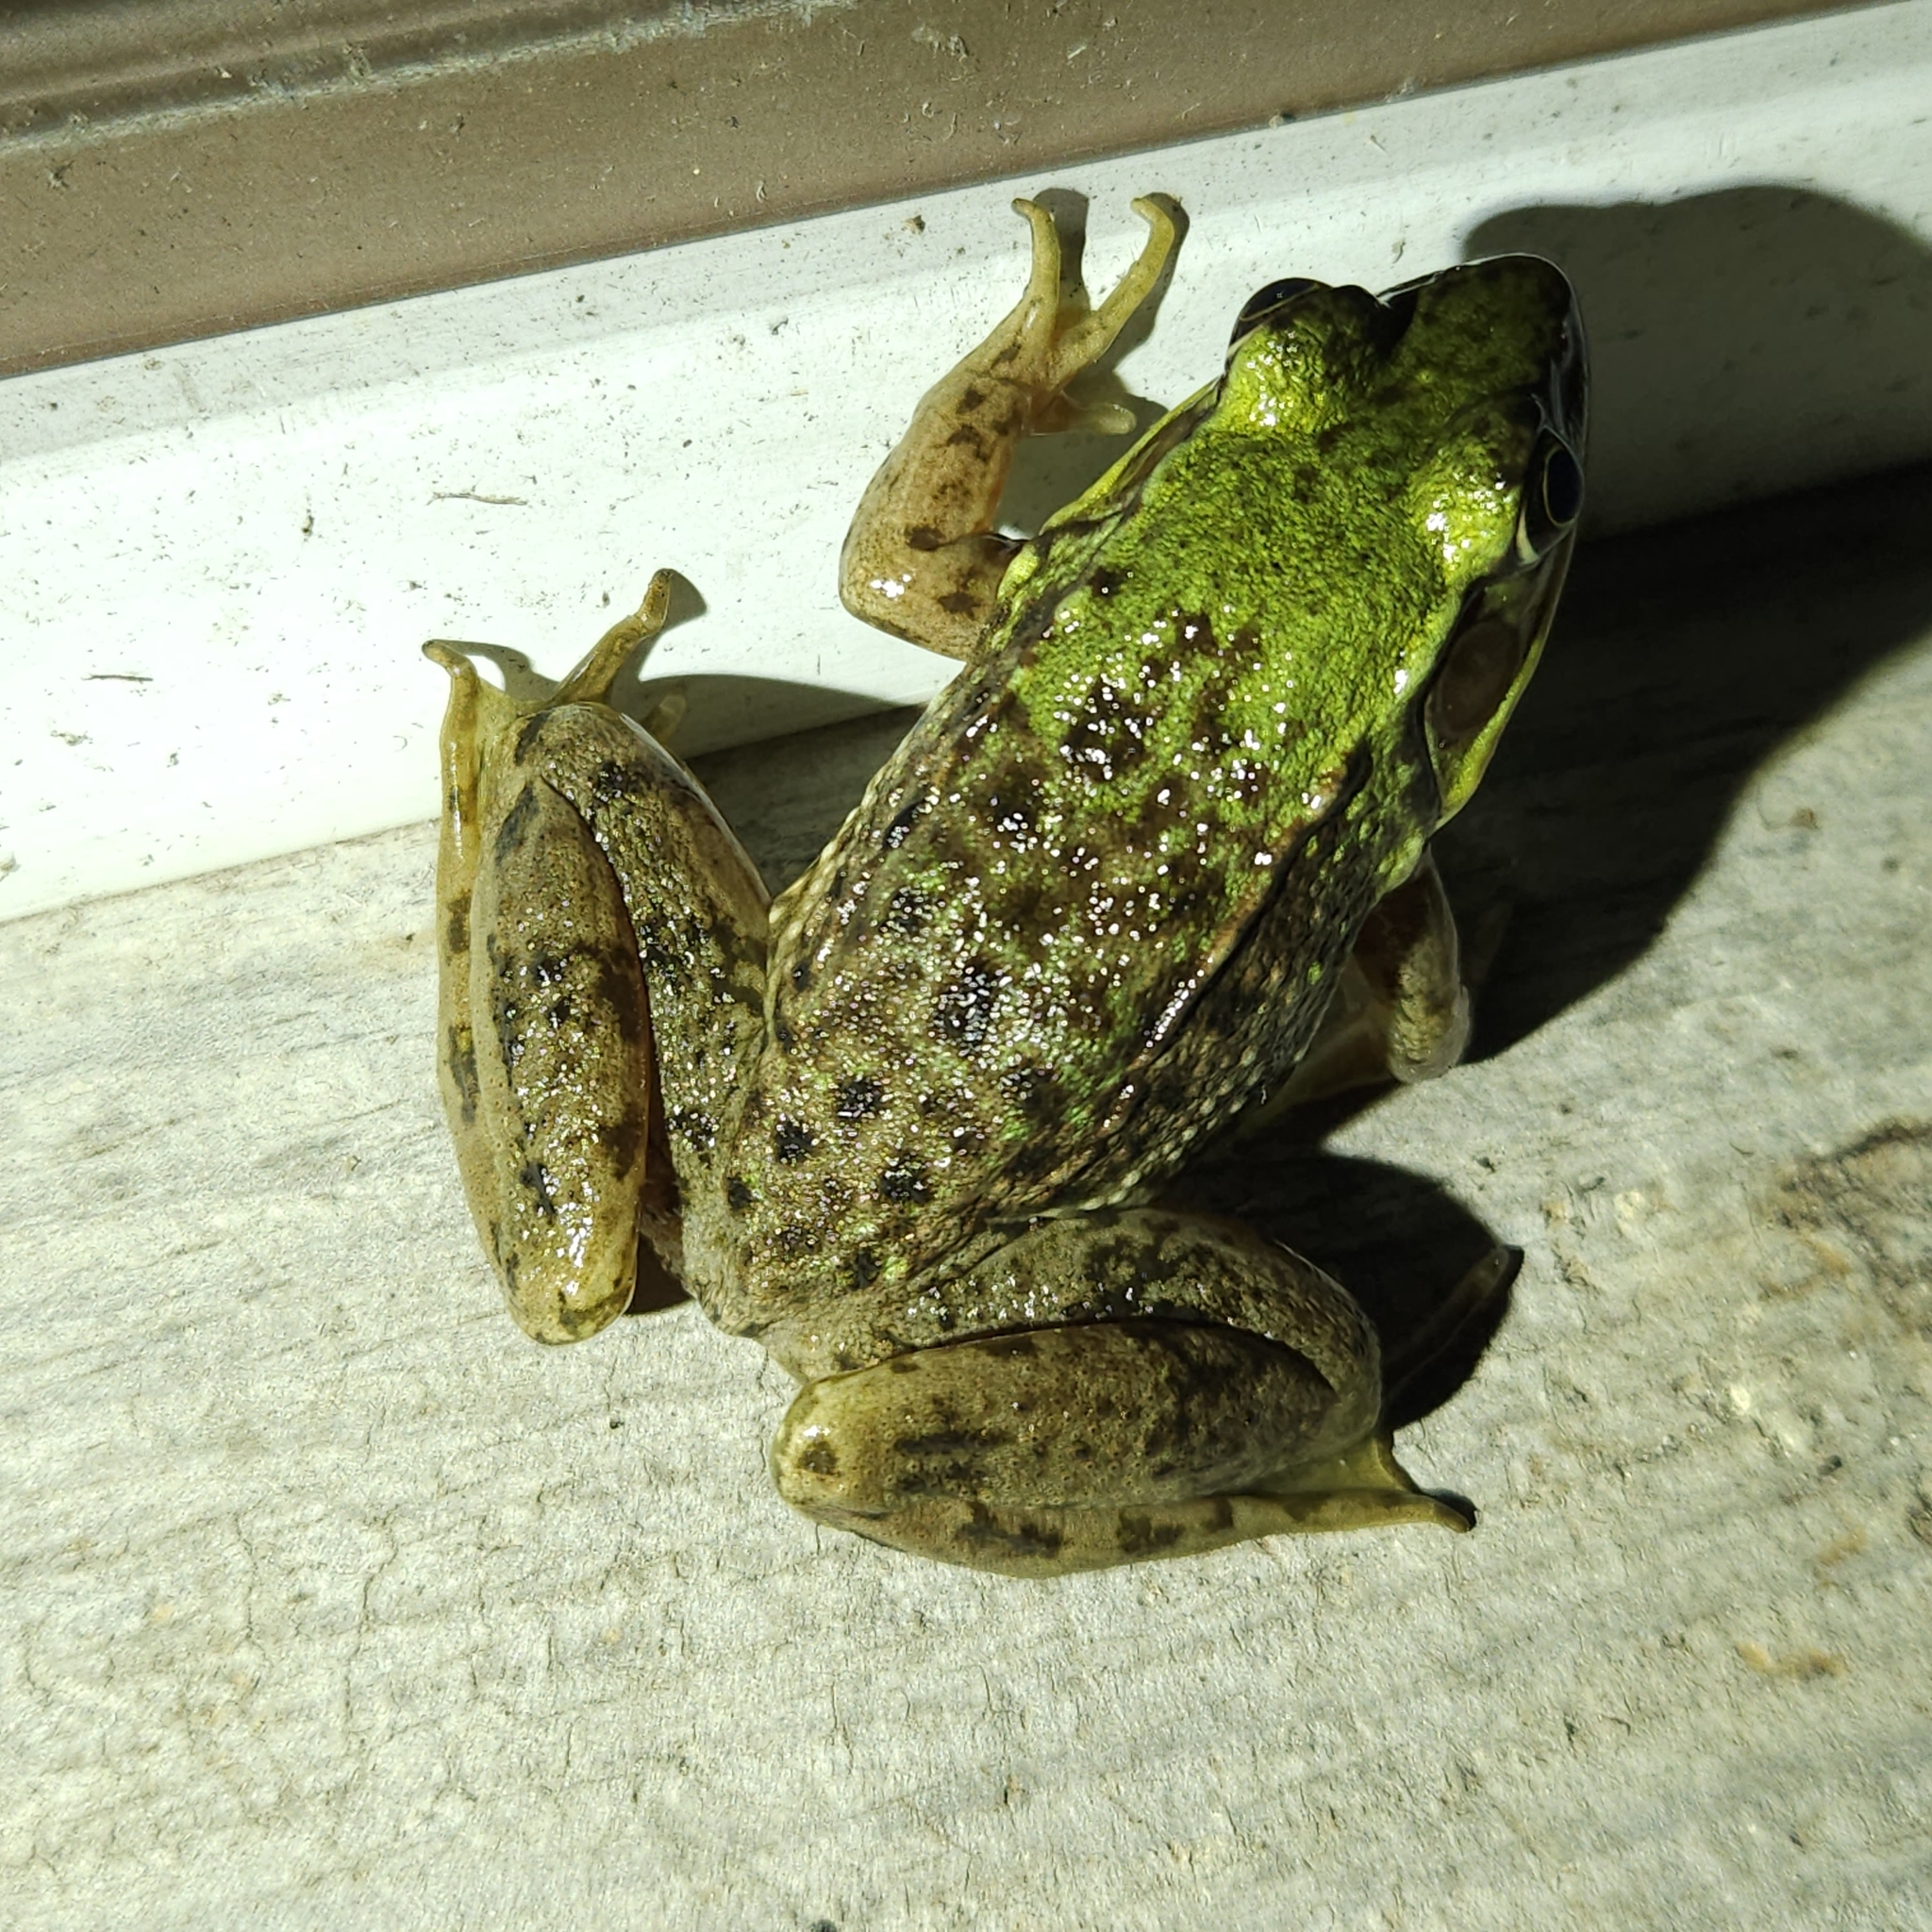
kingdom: Animalia
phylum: Chordata
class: Amphibia
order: Anura
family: Ranidae
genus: Lithobates
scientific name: Lithobates clamitans
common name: Green frog
